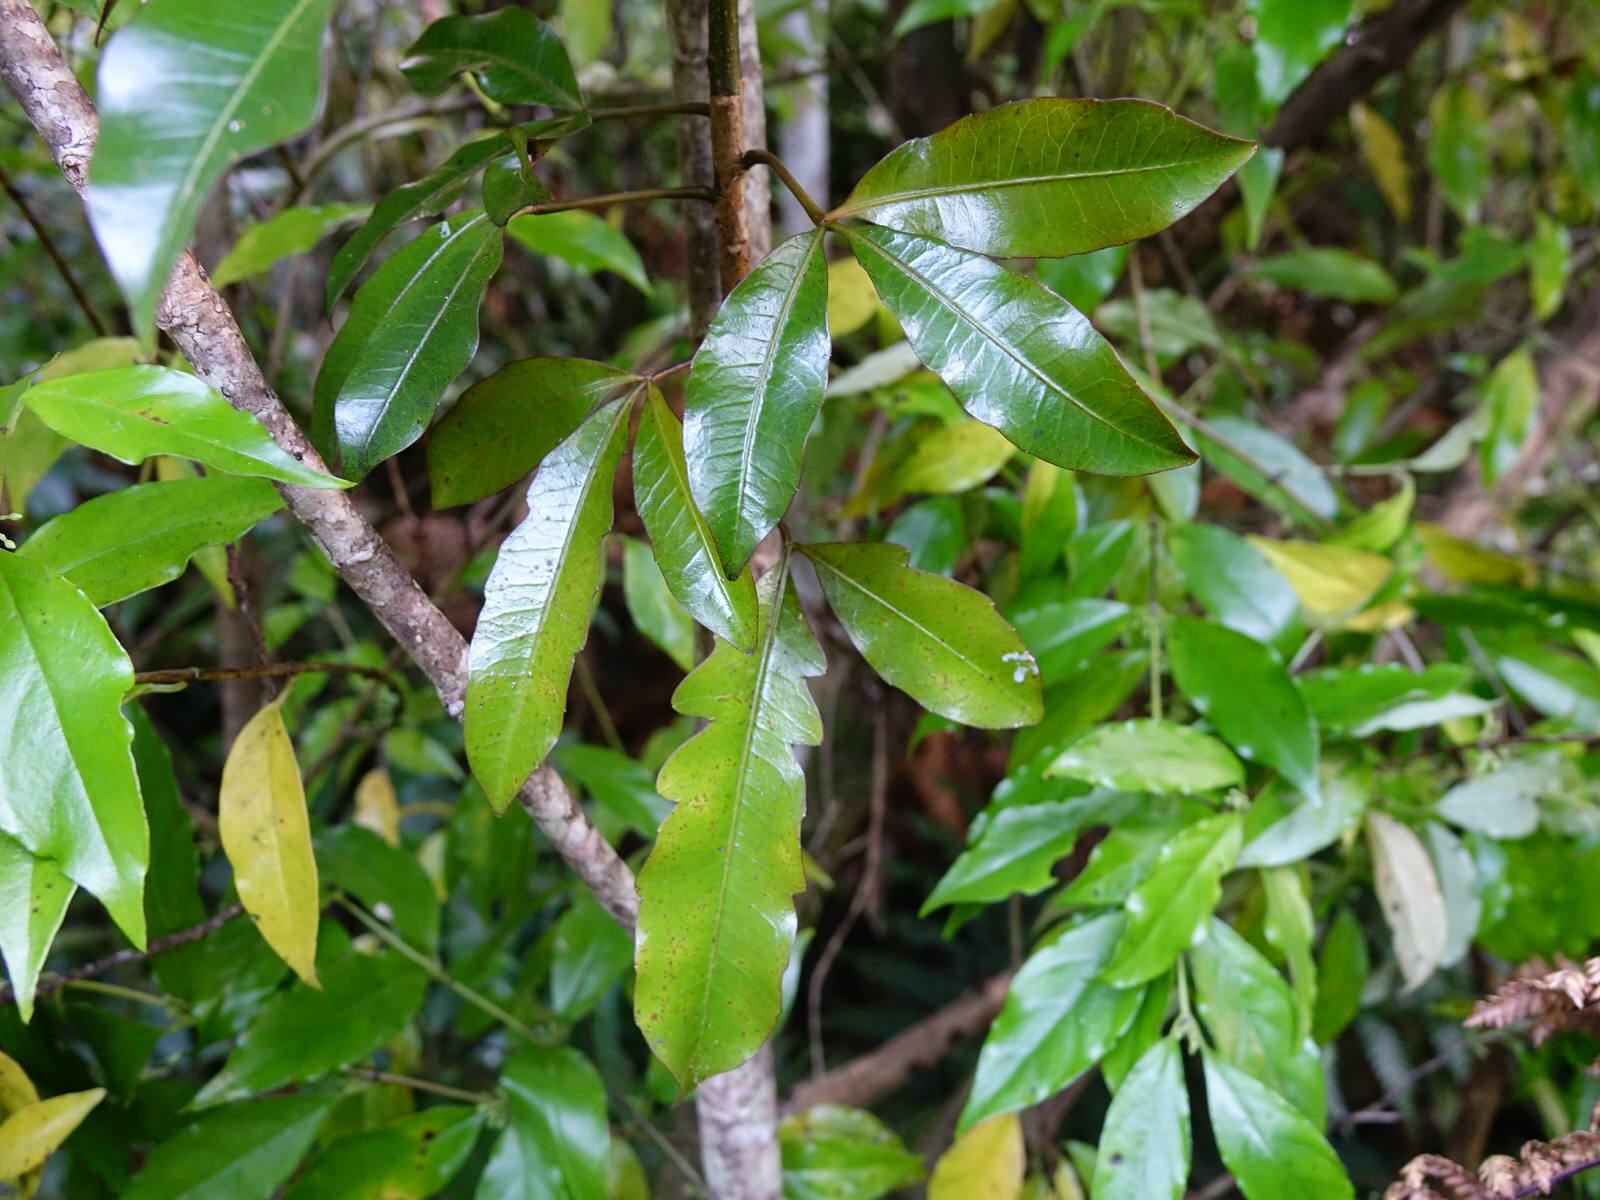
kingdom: Plantae
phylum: Tracheophyta
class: Magnoliopsida
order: Apiales
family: Araliaceae
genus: Raukaua
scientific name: Raukaua edgerleyi
